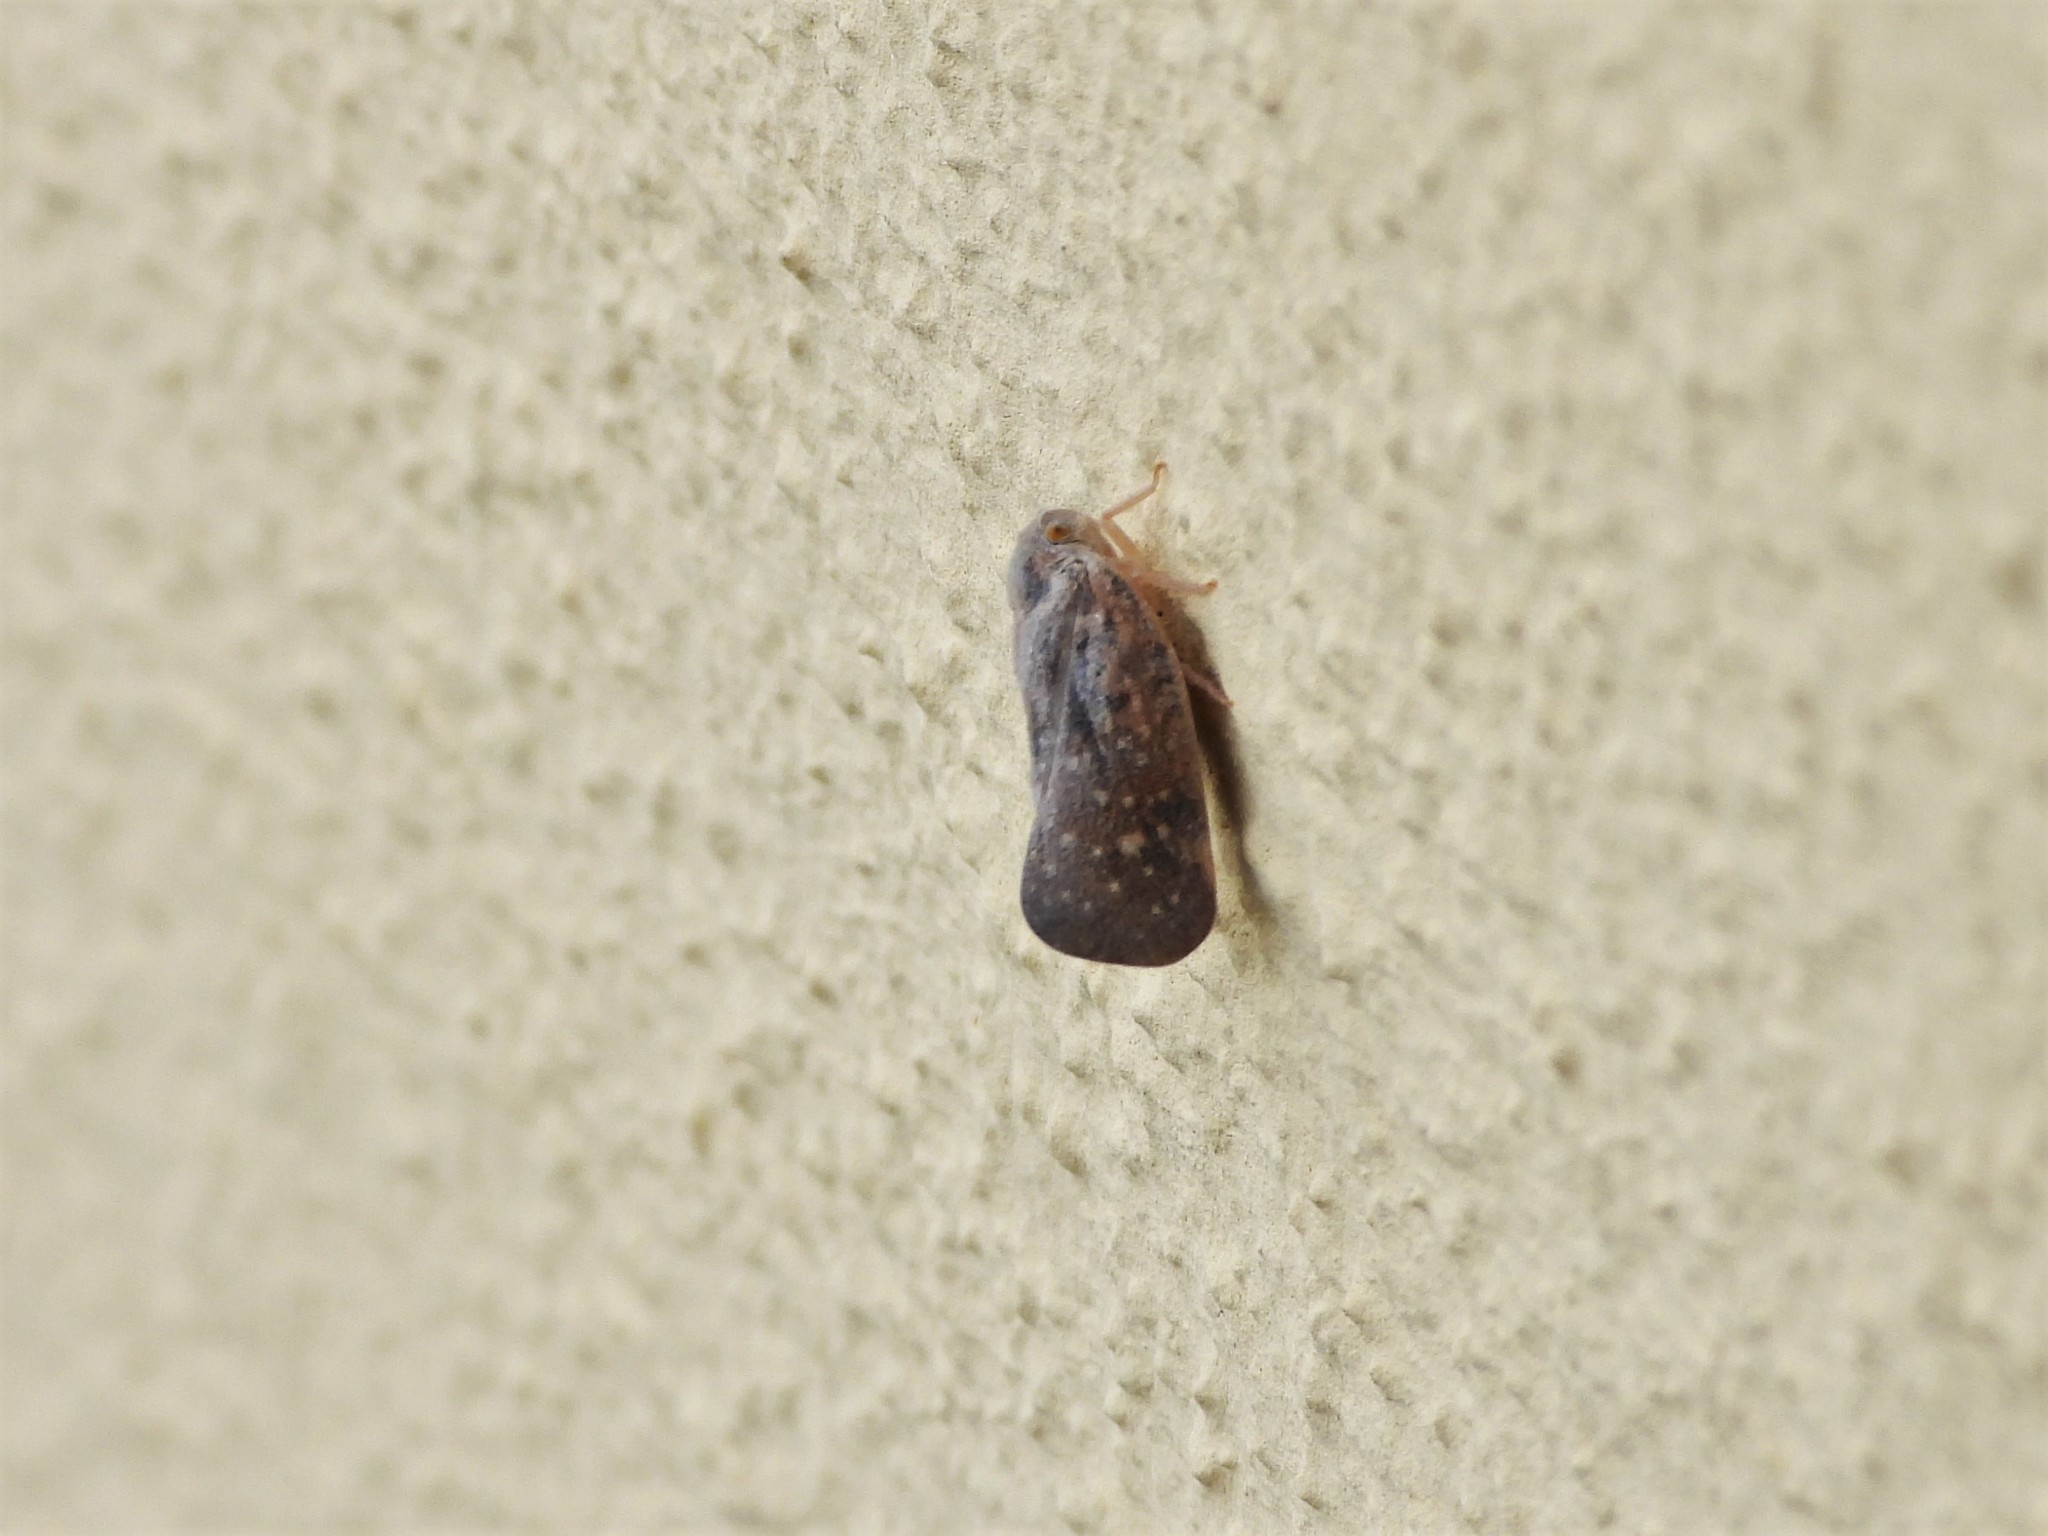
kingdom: Animalia
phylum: Arthropoda
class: Insecta
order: Hemiptera
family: Flatidae
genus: Metcalfa
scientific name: Metcalfa pruinosa
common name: Citrus flatid planthopper
